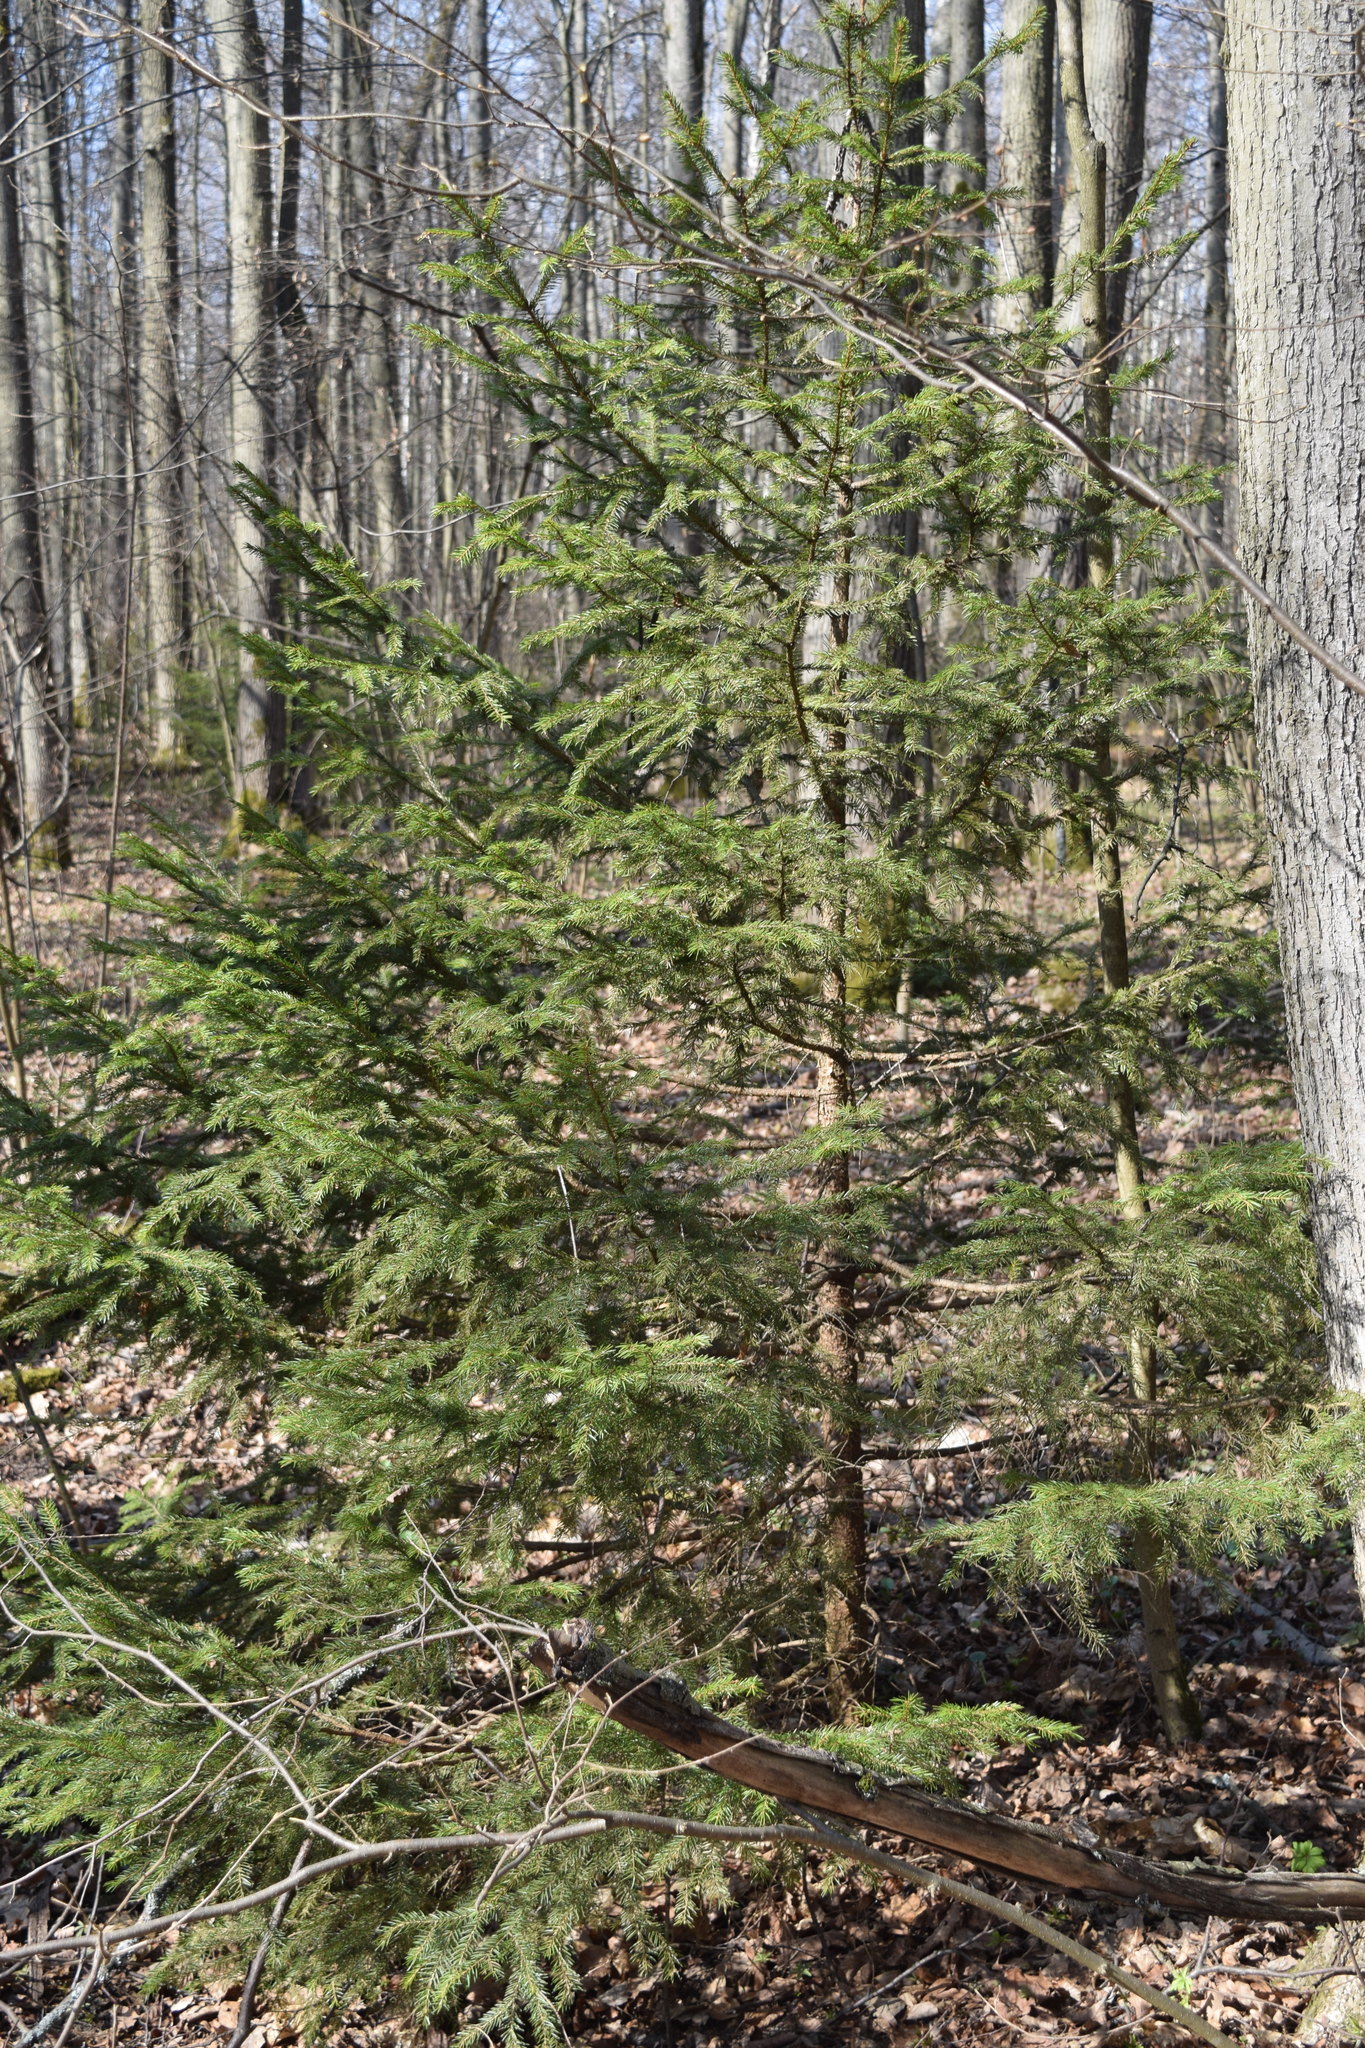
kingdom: Plantae
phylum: Tracheophyta
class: Pinopsida
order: Pinales
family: Pinaceae
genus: Picea
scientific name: Picea abies
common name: Norway spruce
